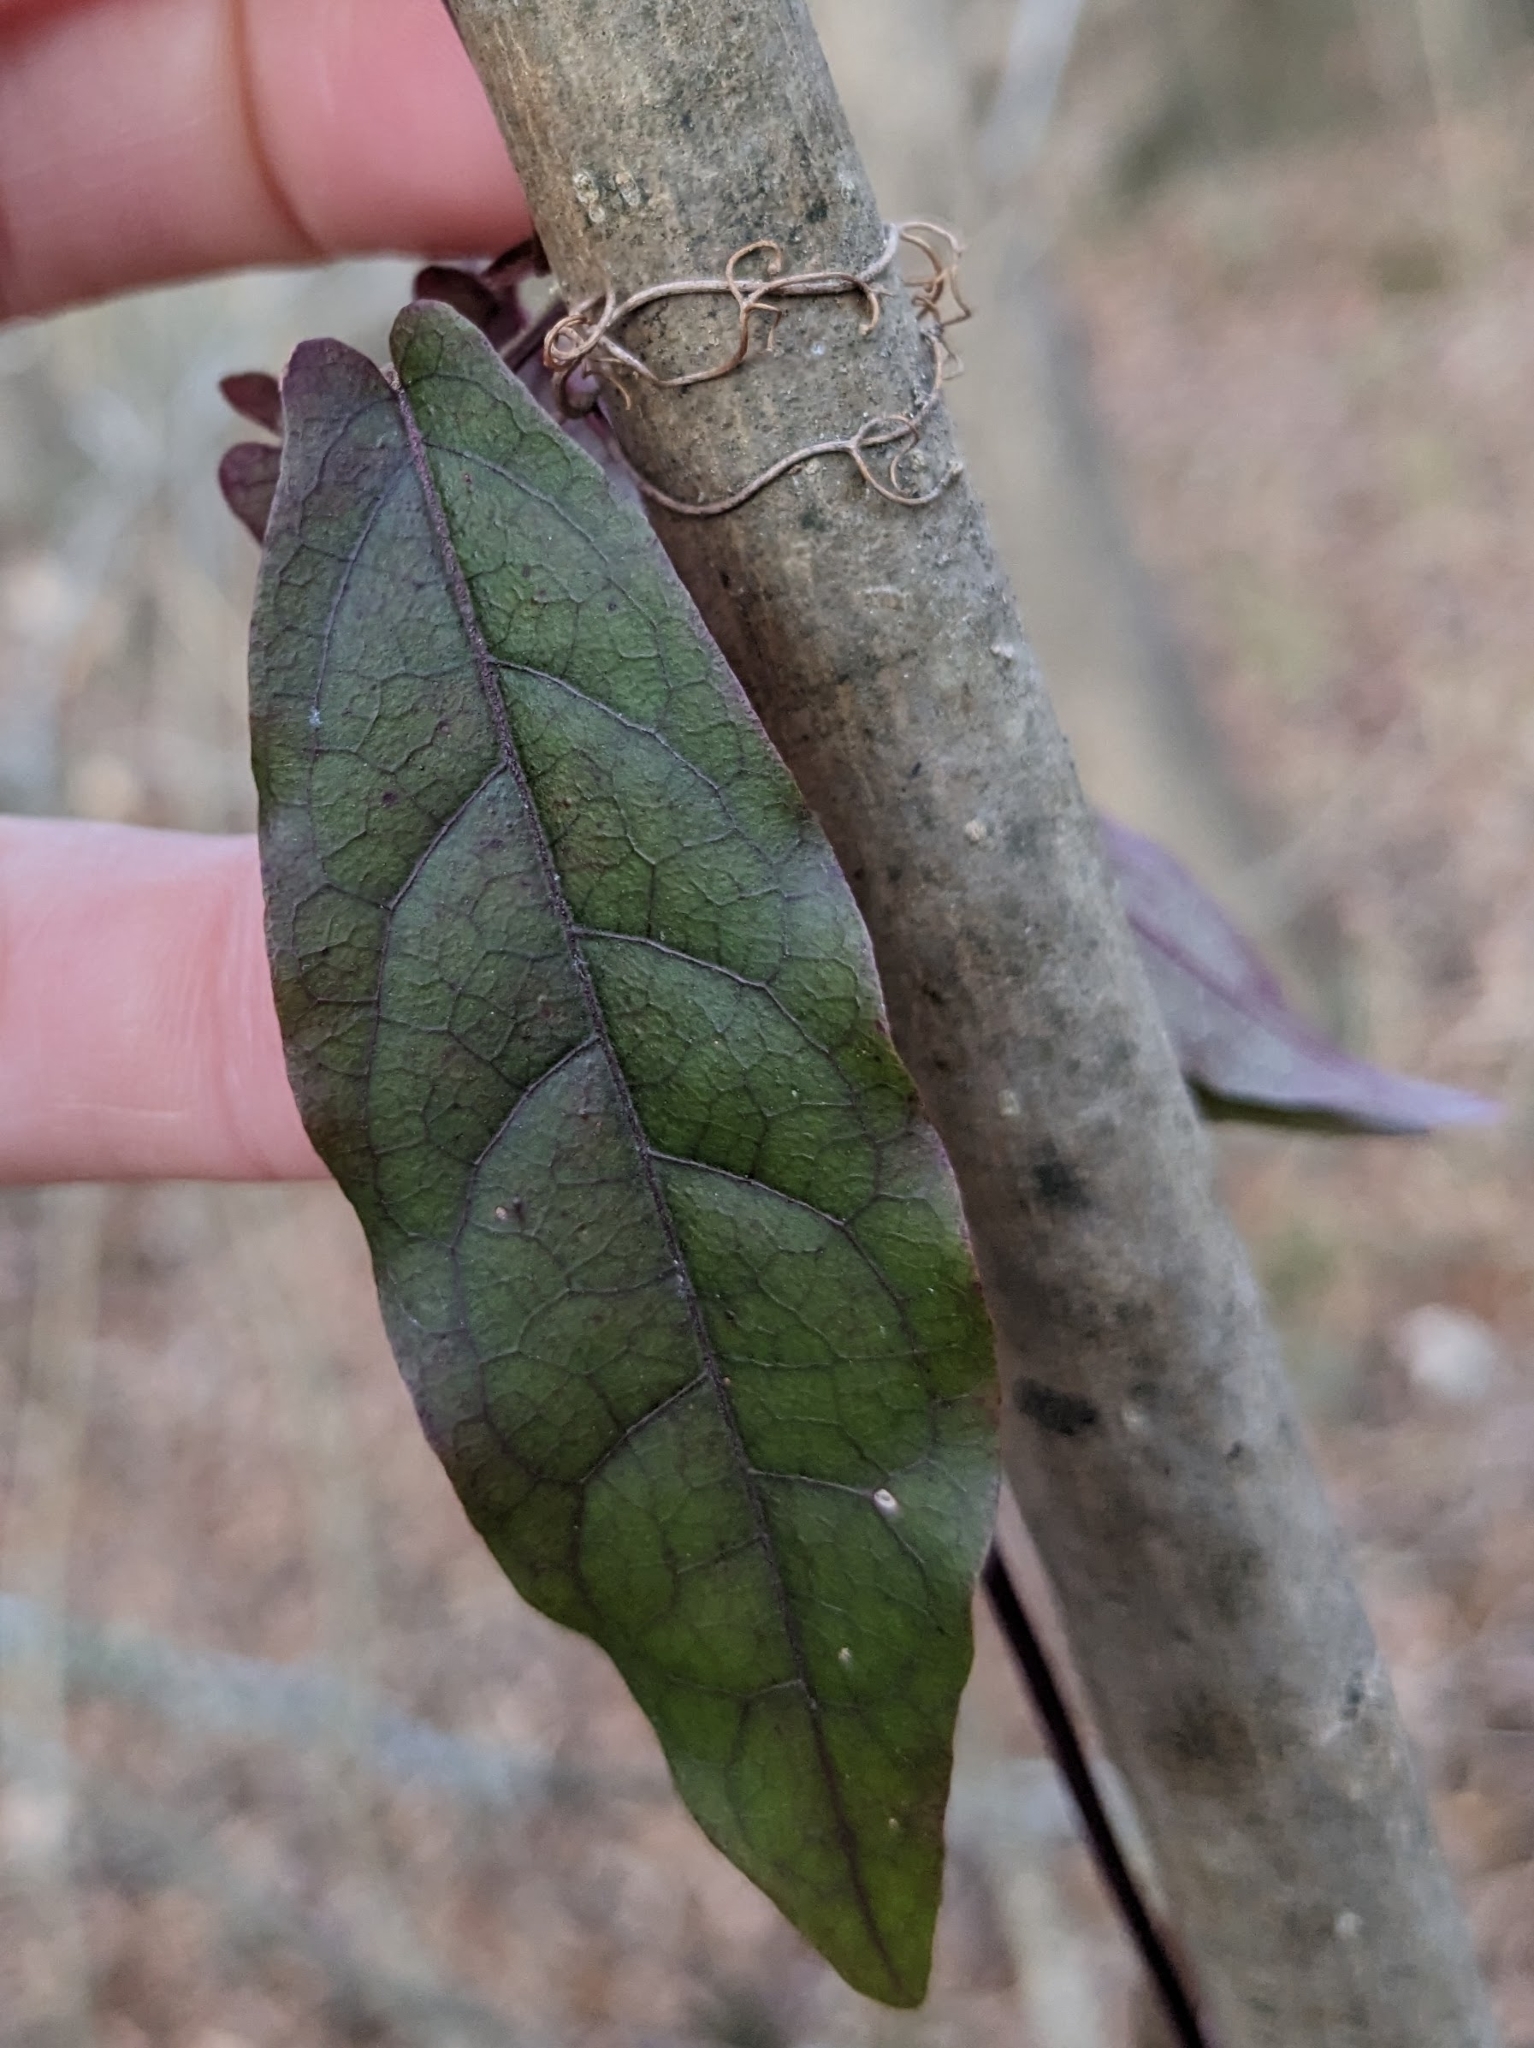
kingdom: Plantae
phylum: Tracheophyta
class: Magnoliopsida
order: Lamiales
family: Bignoniaceae
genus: Bignonia
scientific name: Bignonia capreolata
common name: Crossvine
